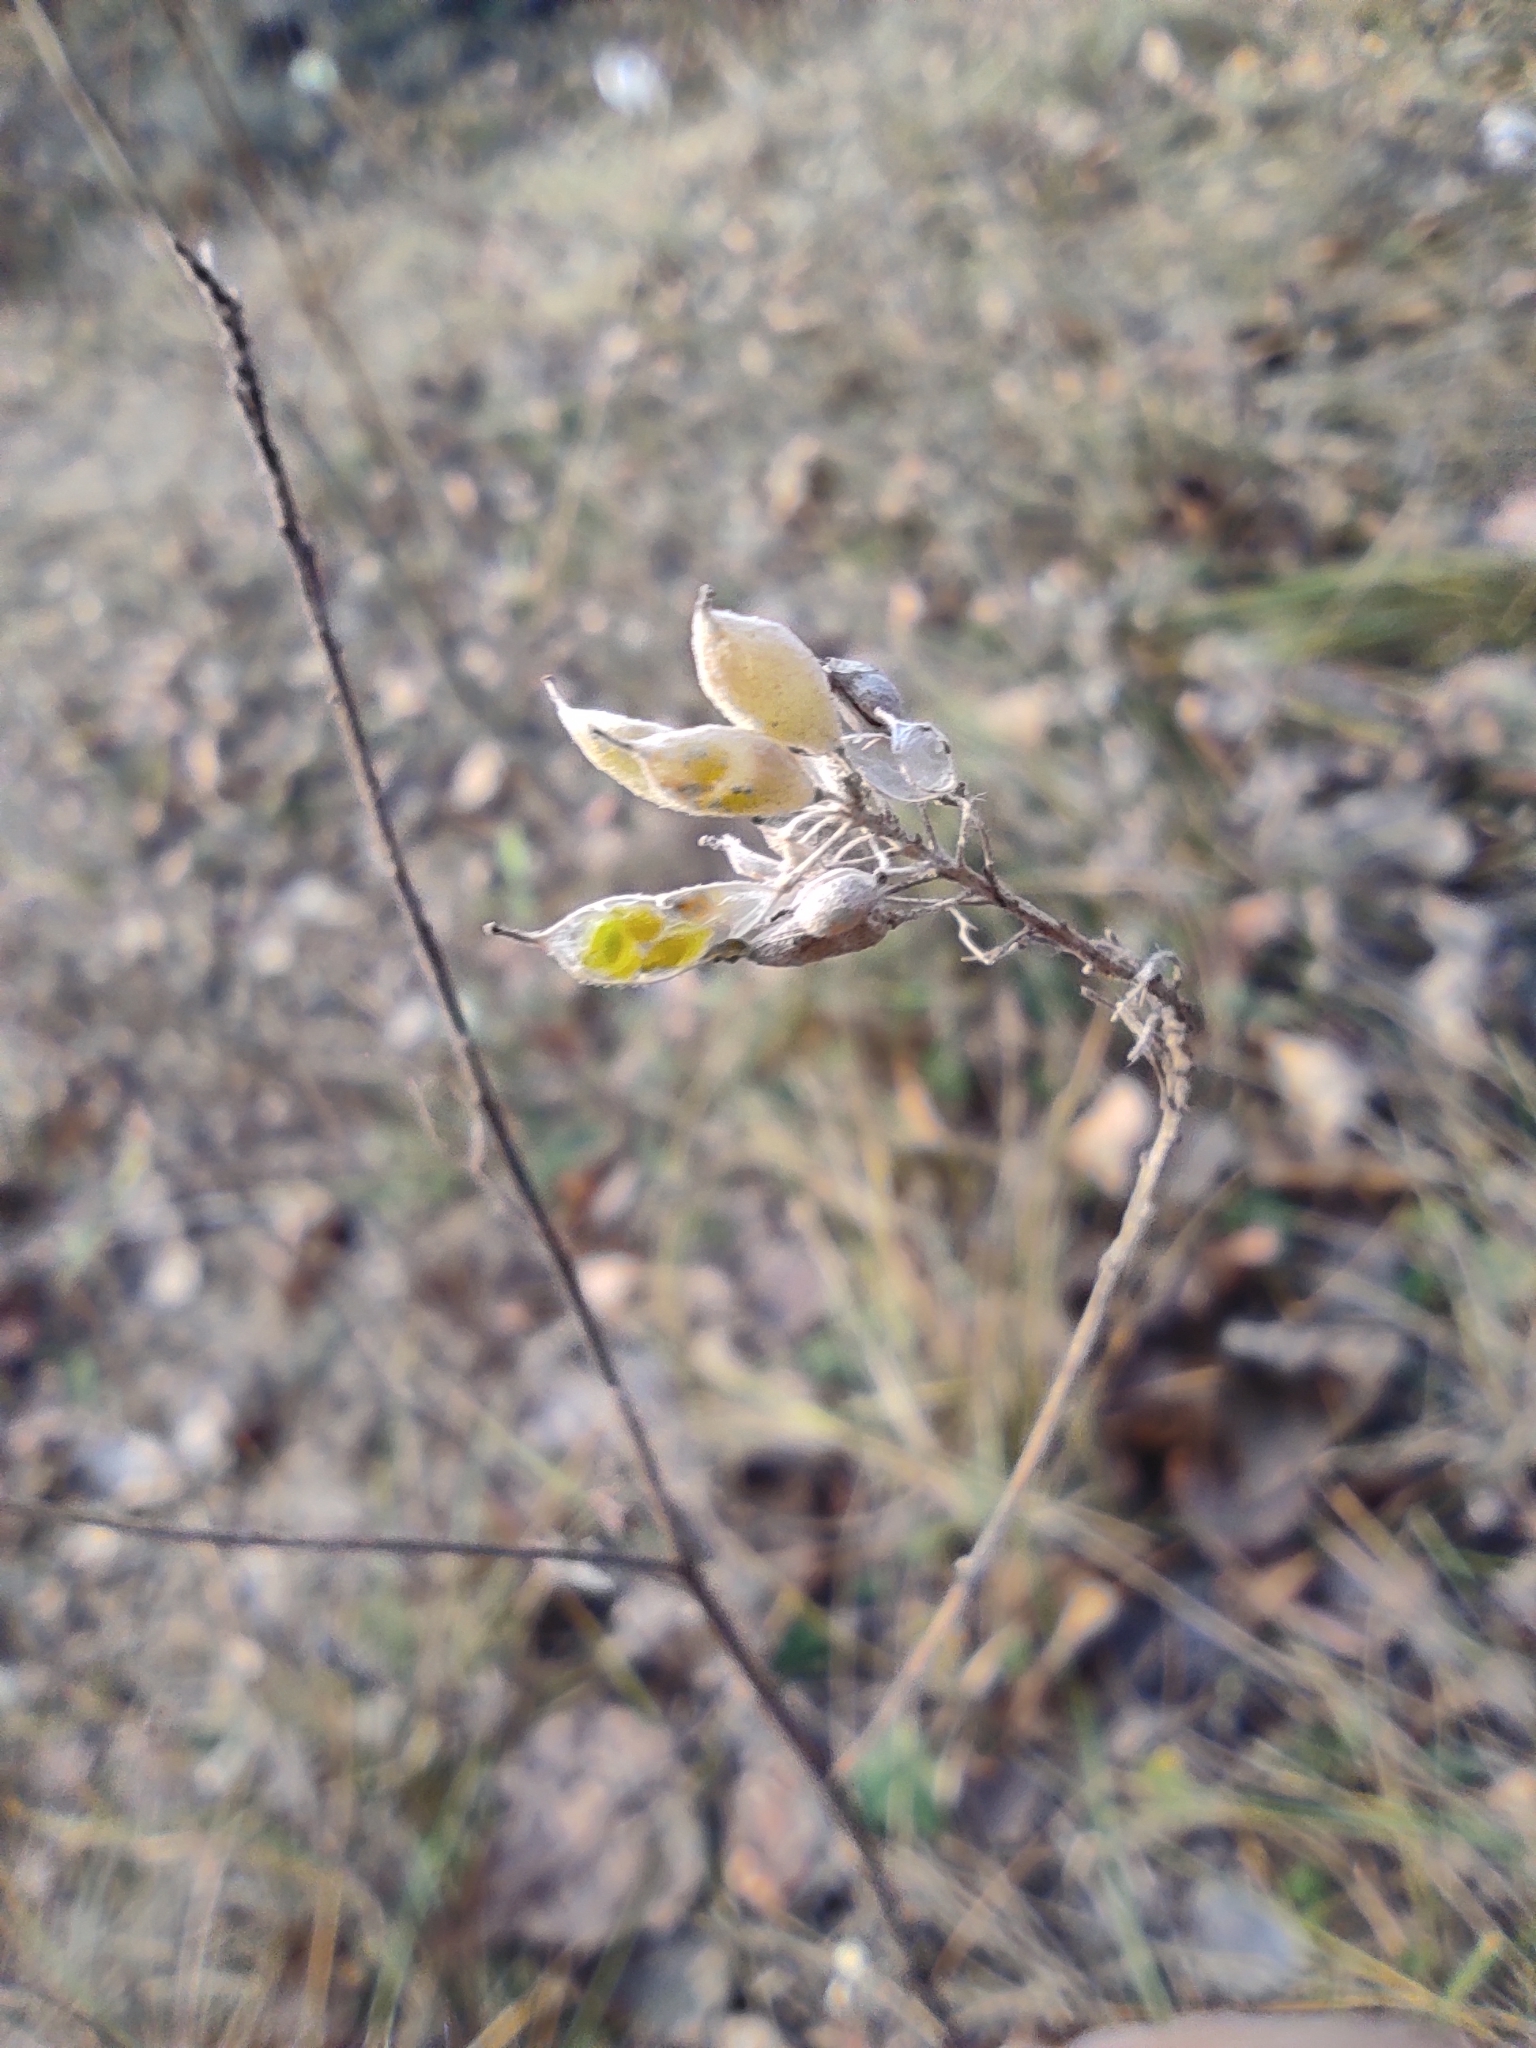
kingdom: Plantae
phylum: Tracheophyta
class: Magnoliopsida
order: Brassicales
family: Brassicaceae
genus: Berteroa
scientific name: Berteroa incana
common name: Hoary alison
